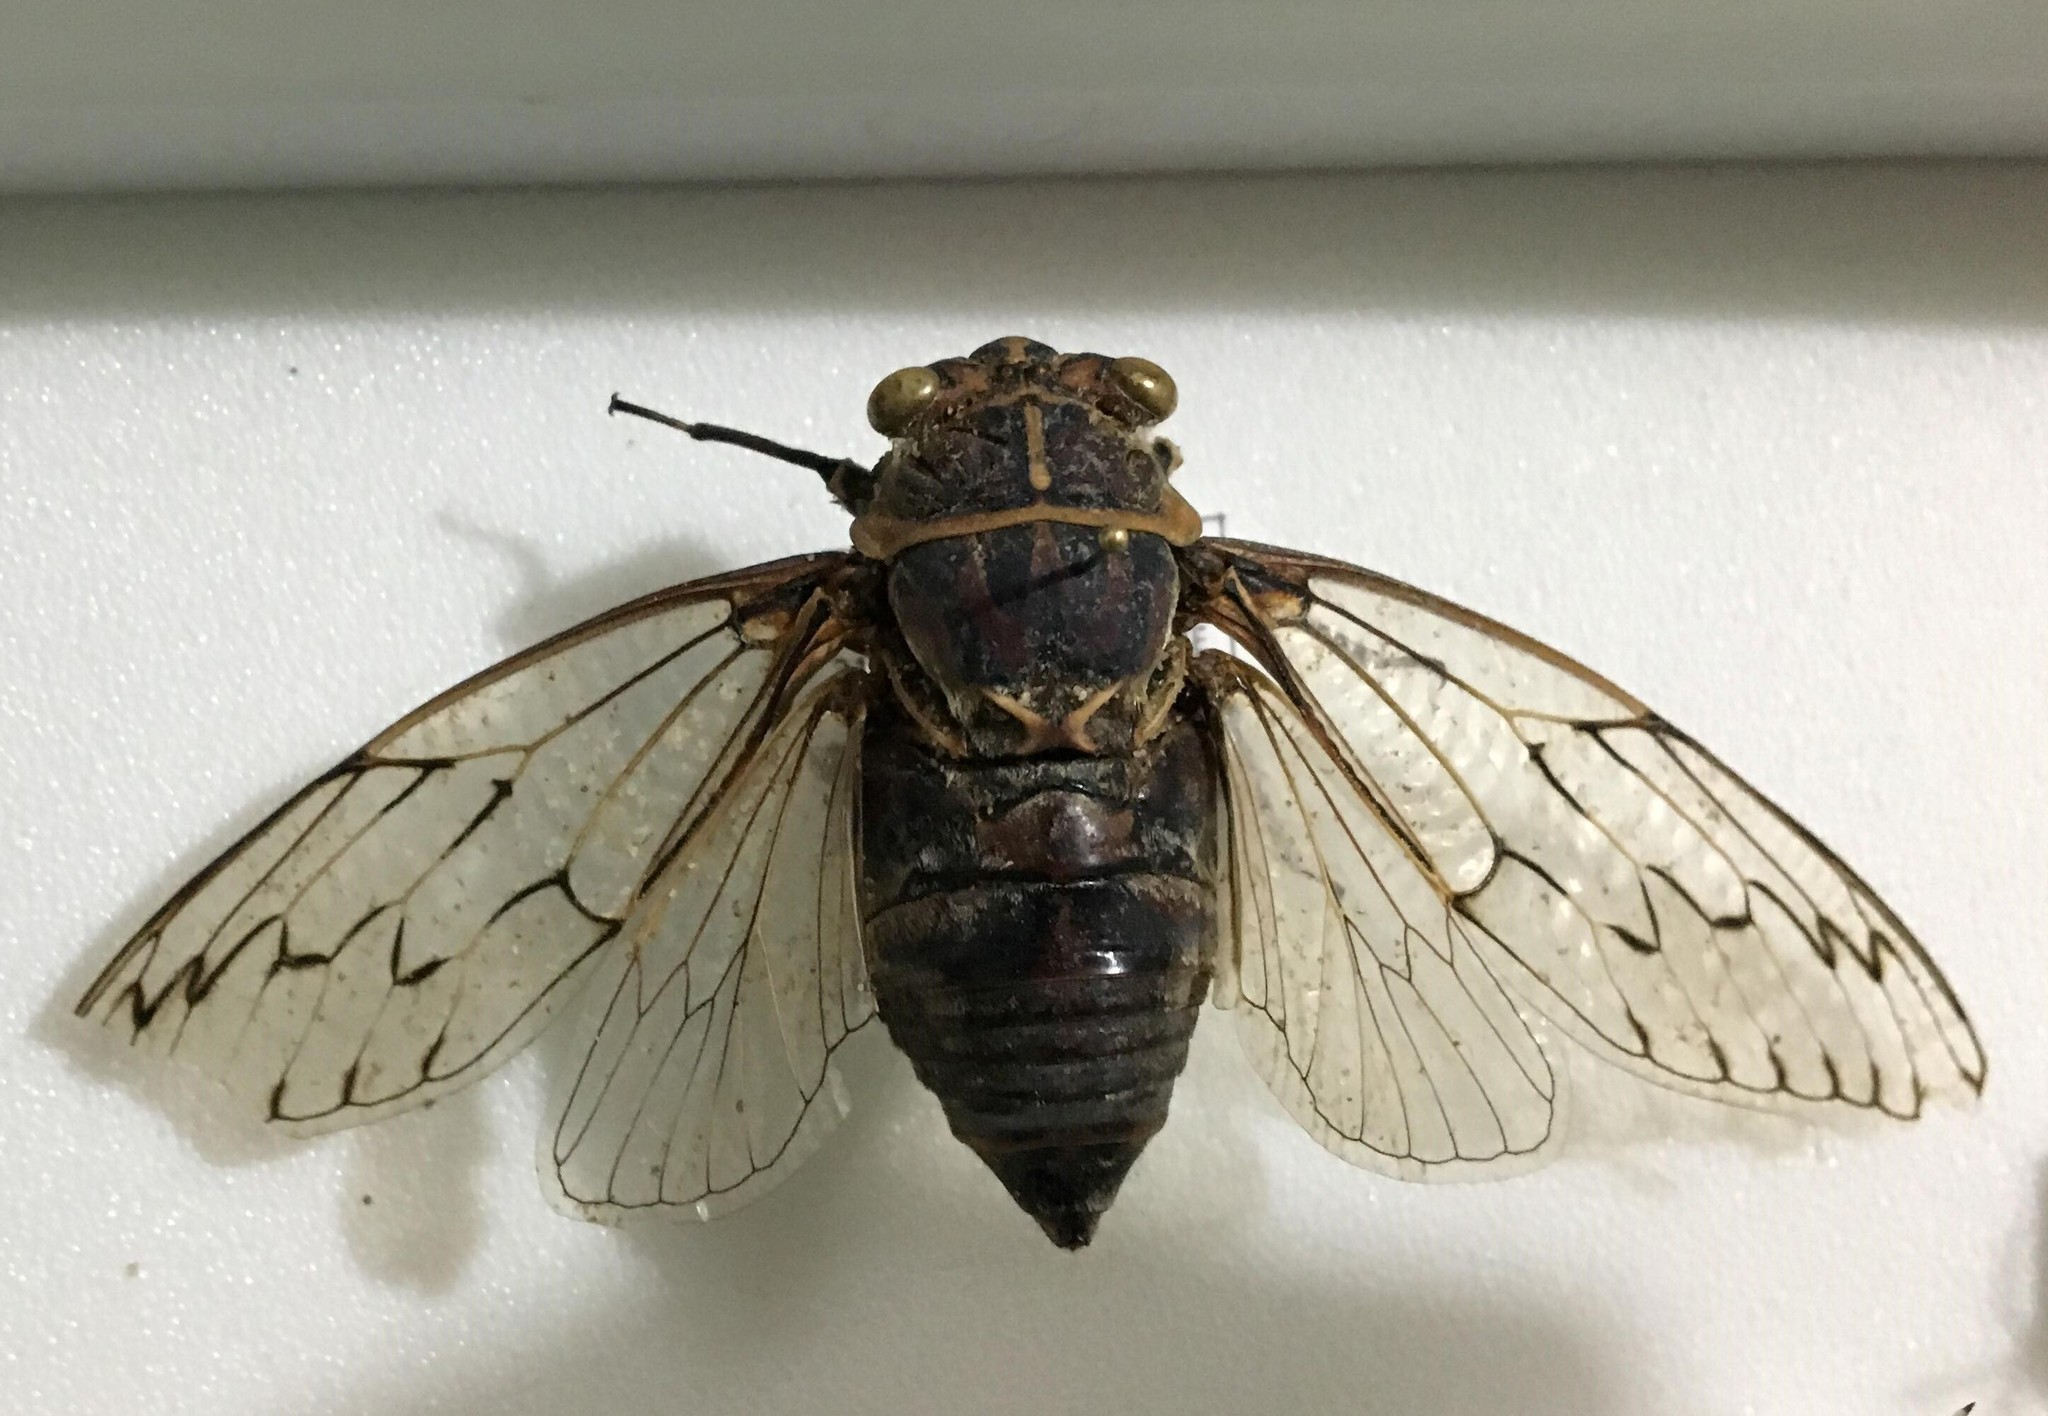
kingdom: Animalia
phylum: Arthropoda
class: Insecta
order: Hemiptera
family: Cicadidae
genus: Henicopsaltria
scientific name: Henicopsaltria eydouxii
